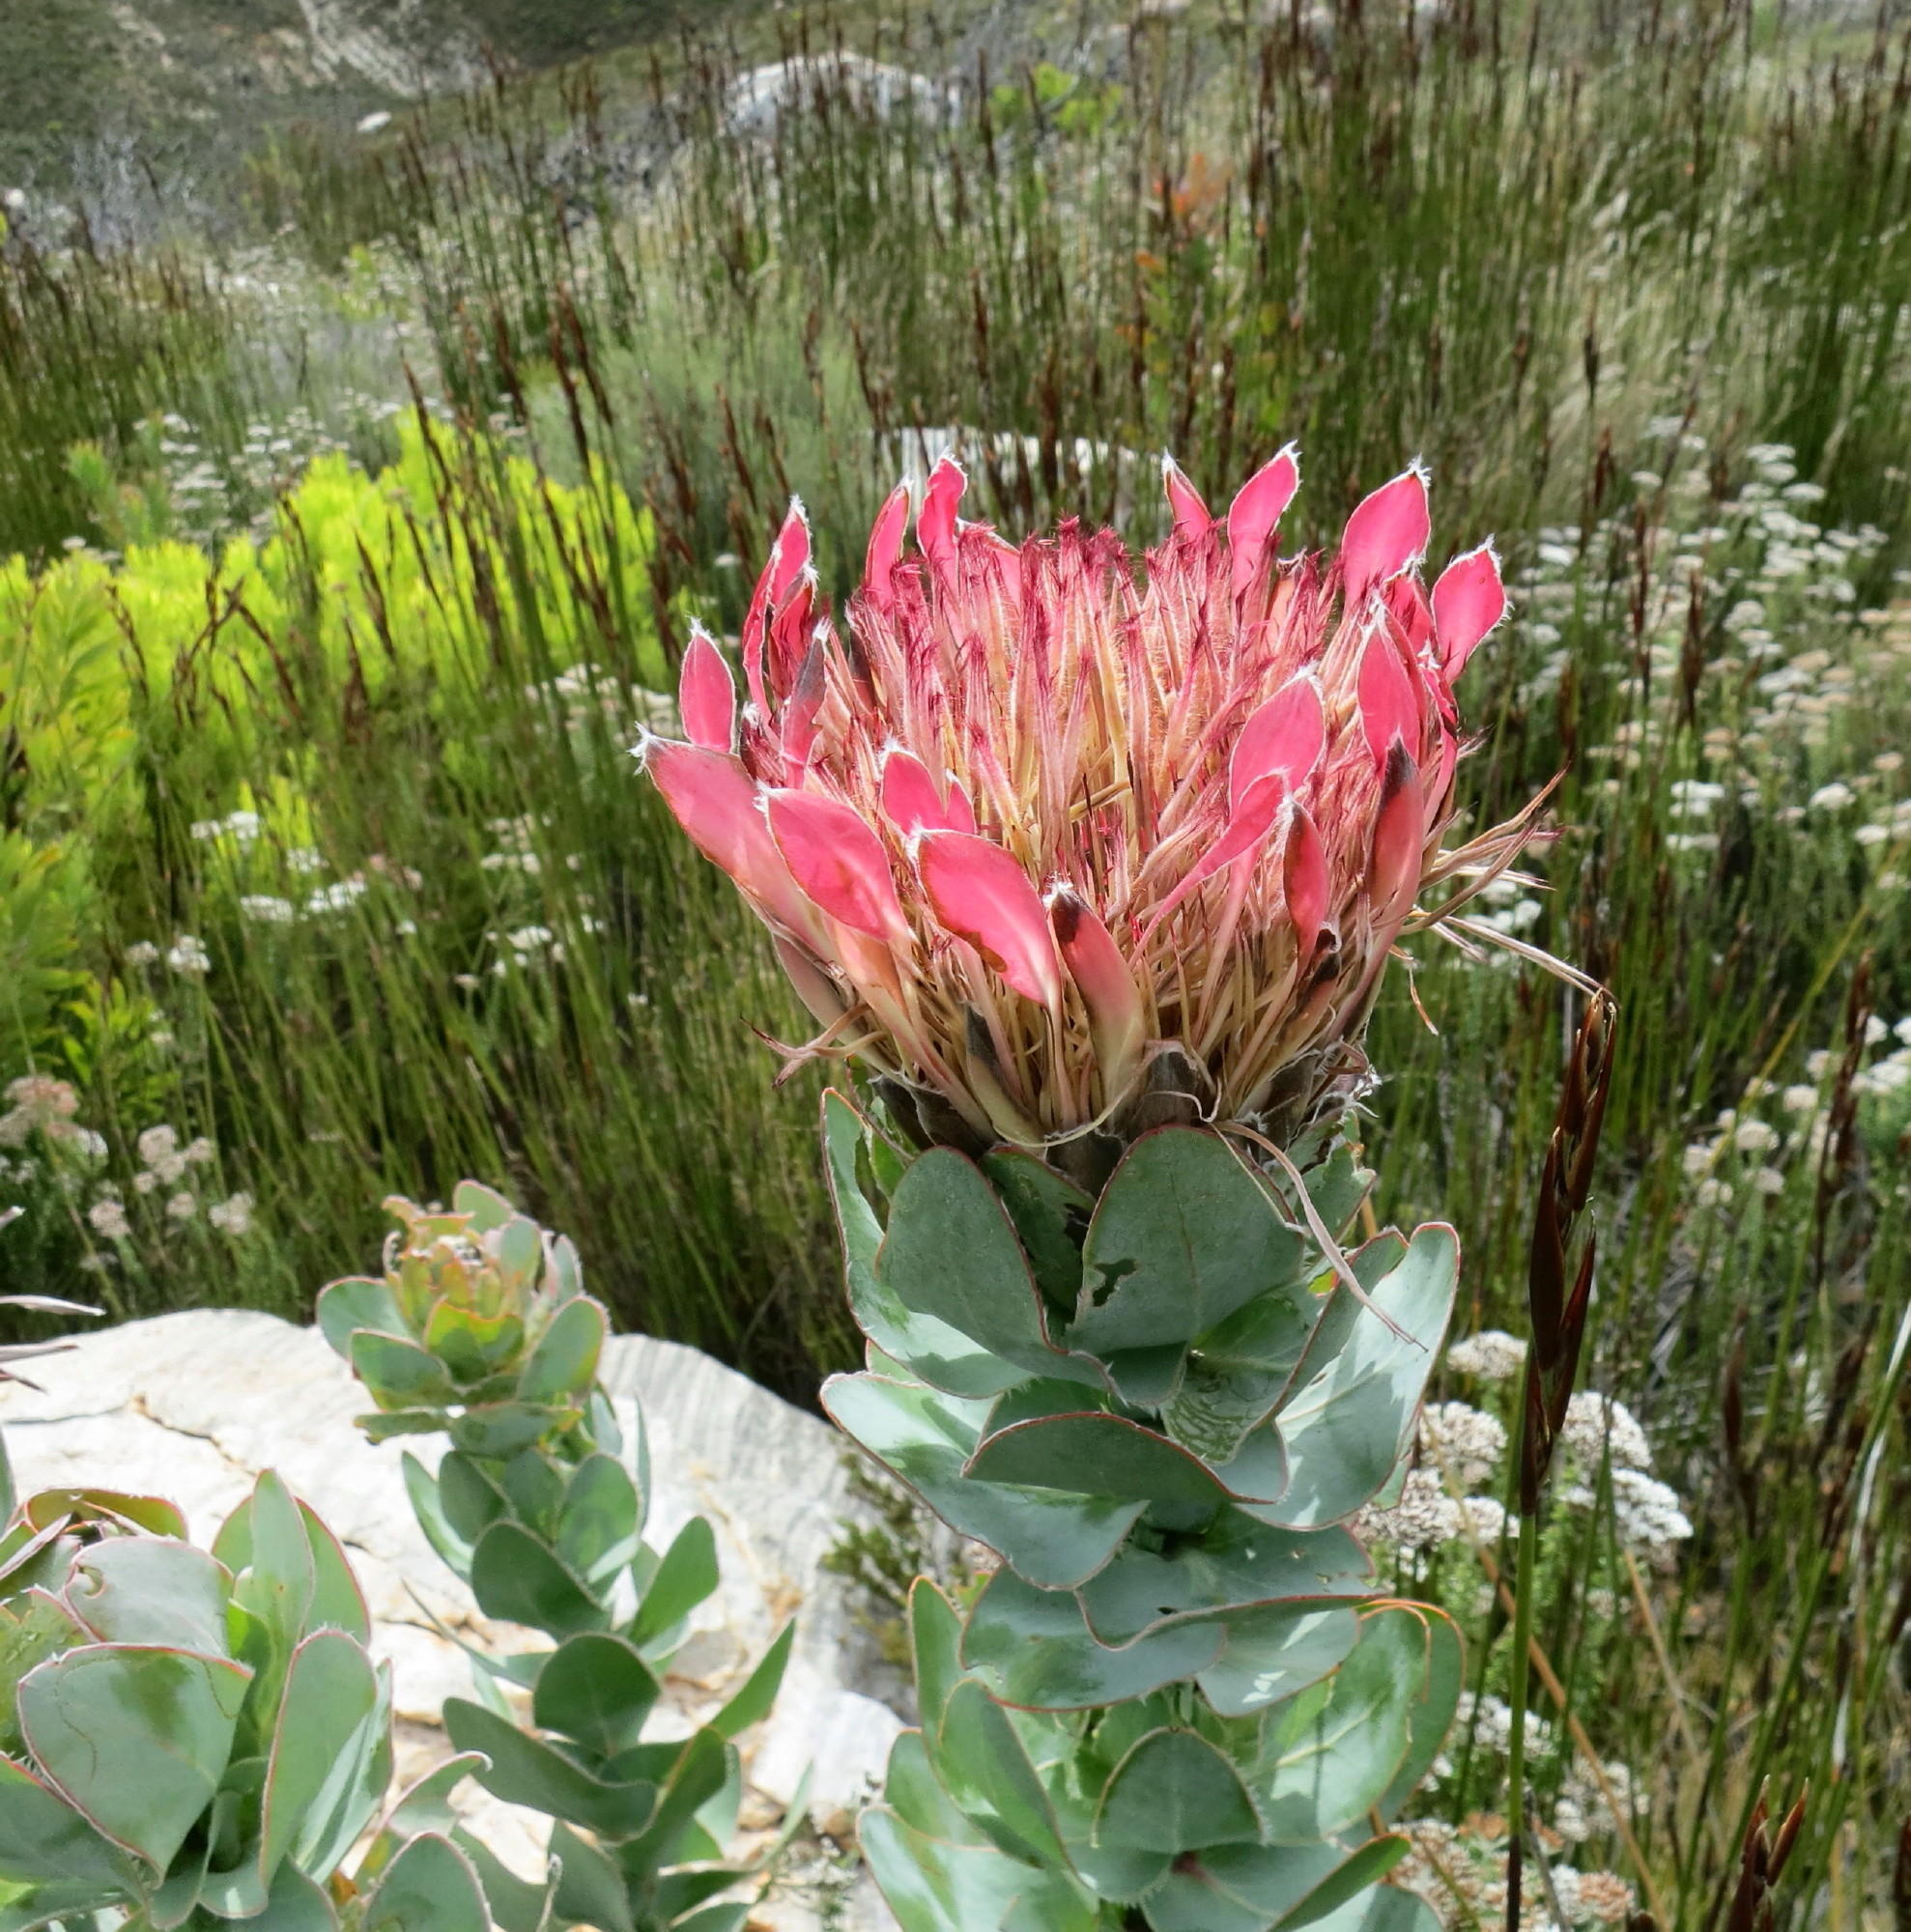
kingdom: Plantae
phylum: Tracheophyta
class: Magnoliopsida
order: Proteales
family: Proteaceae
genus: Protea
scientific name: Protea eximia
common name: Broad-leaved sugarbush
